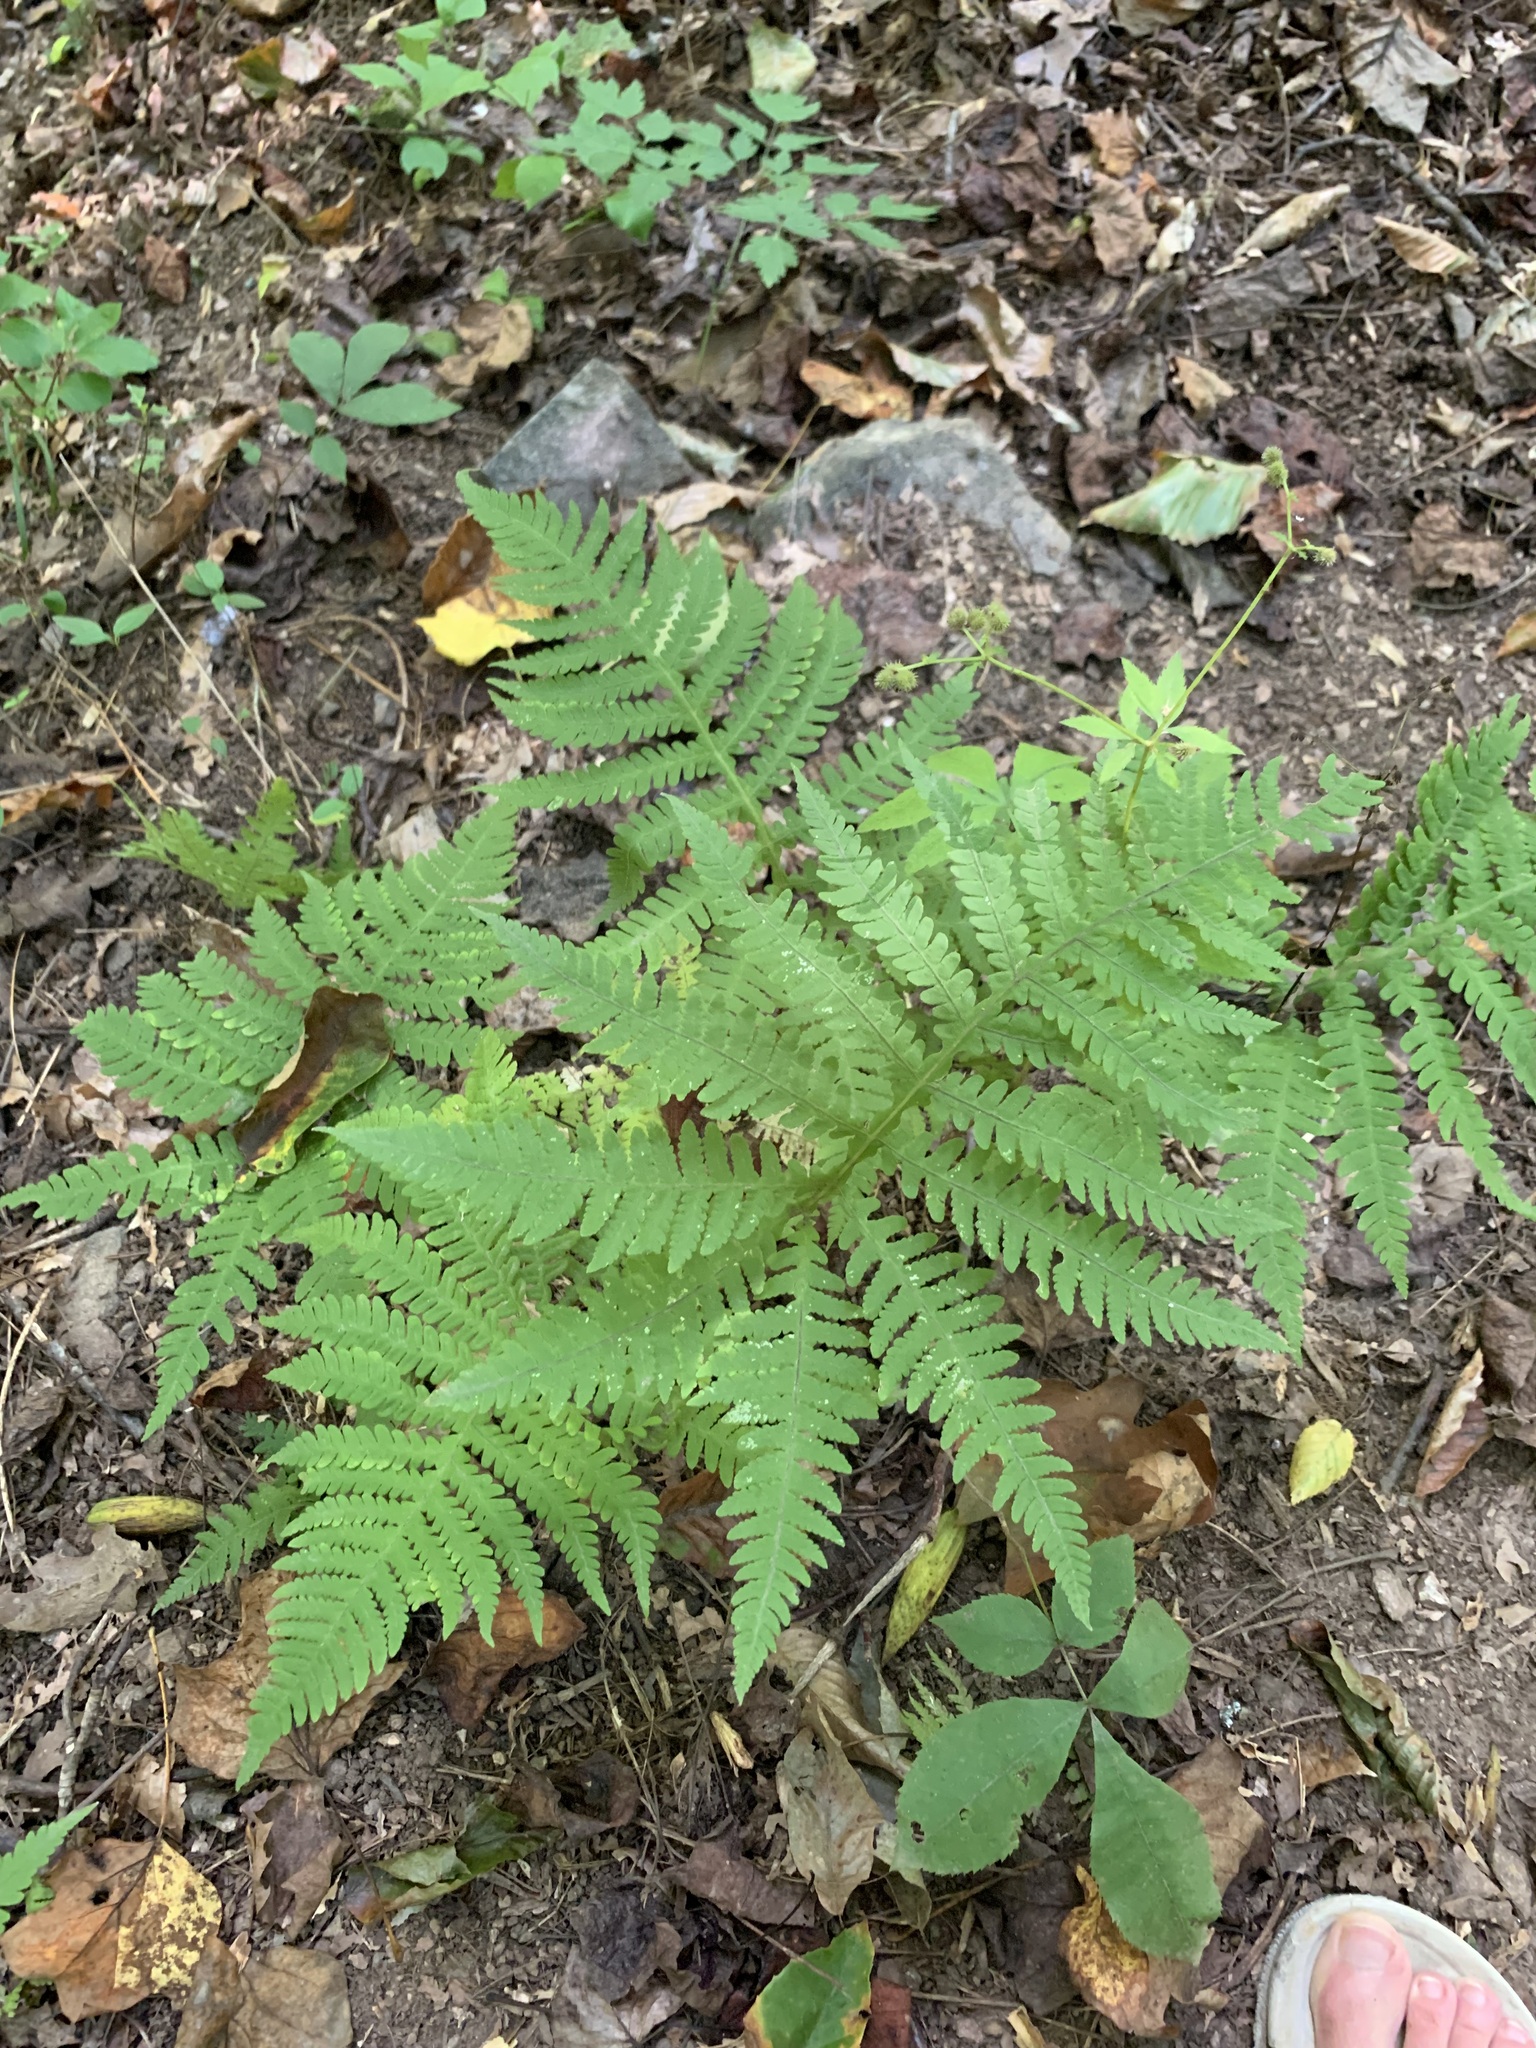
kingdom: Plantae
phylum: Tracheophyta
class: Polypodiopsida
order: Polypodiales
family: Thelypteridaceae
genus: Phegopteris
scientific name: Phegopteris hexagonoptera
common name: Broad beech fern
